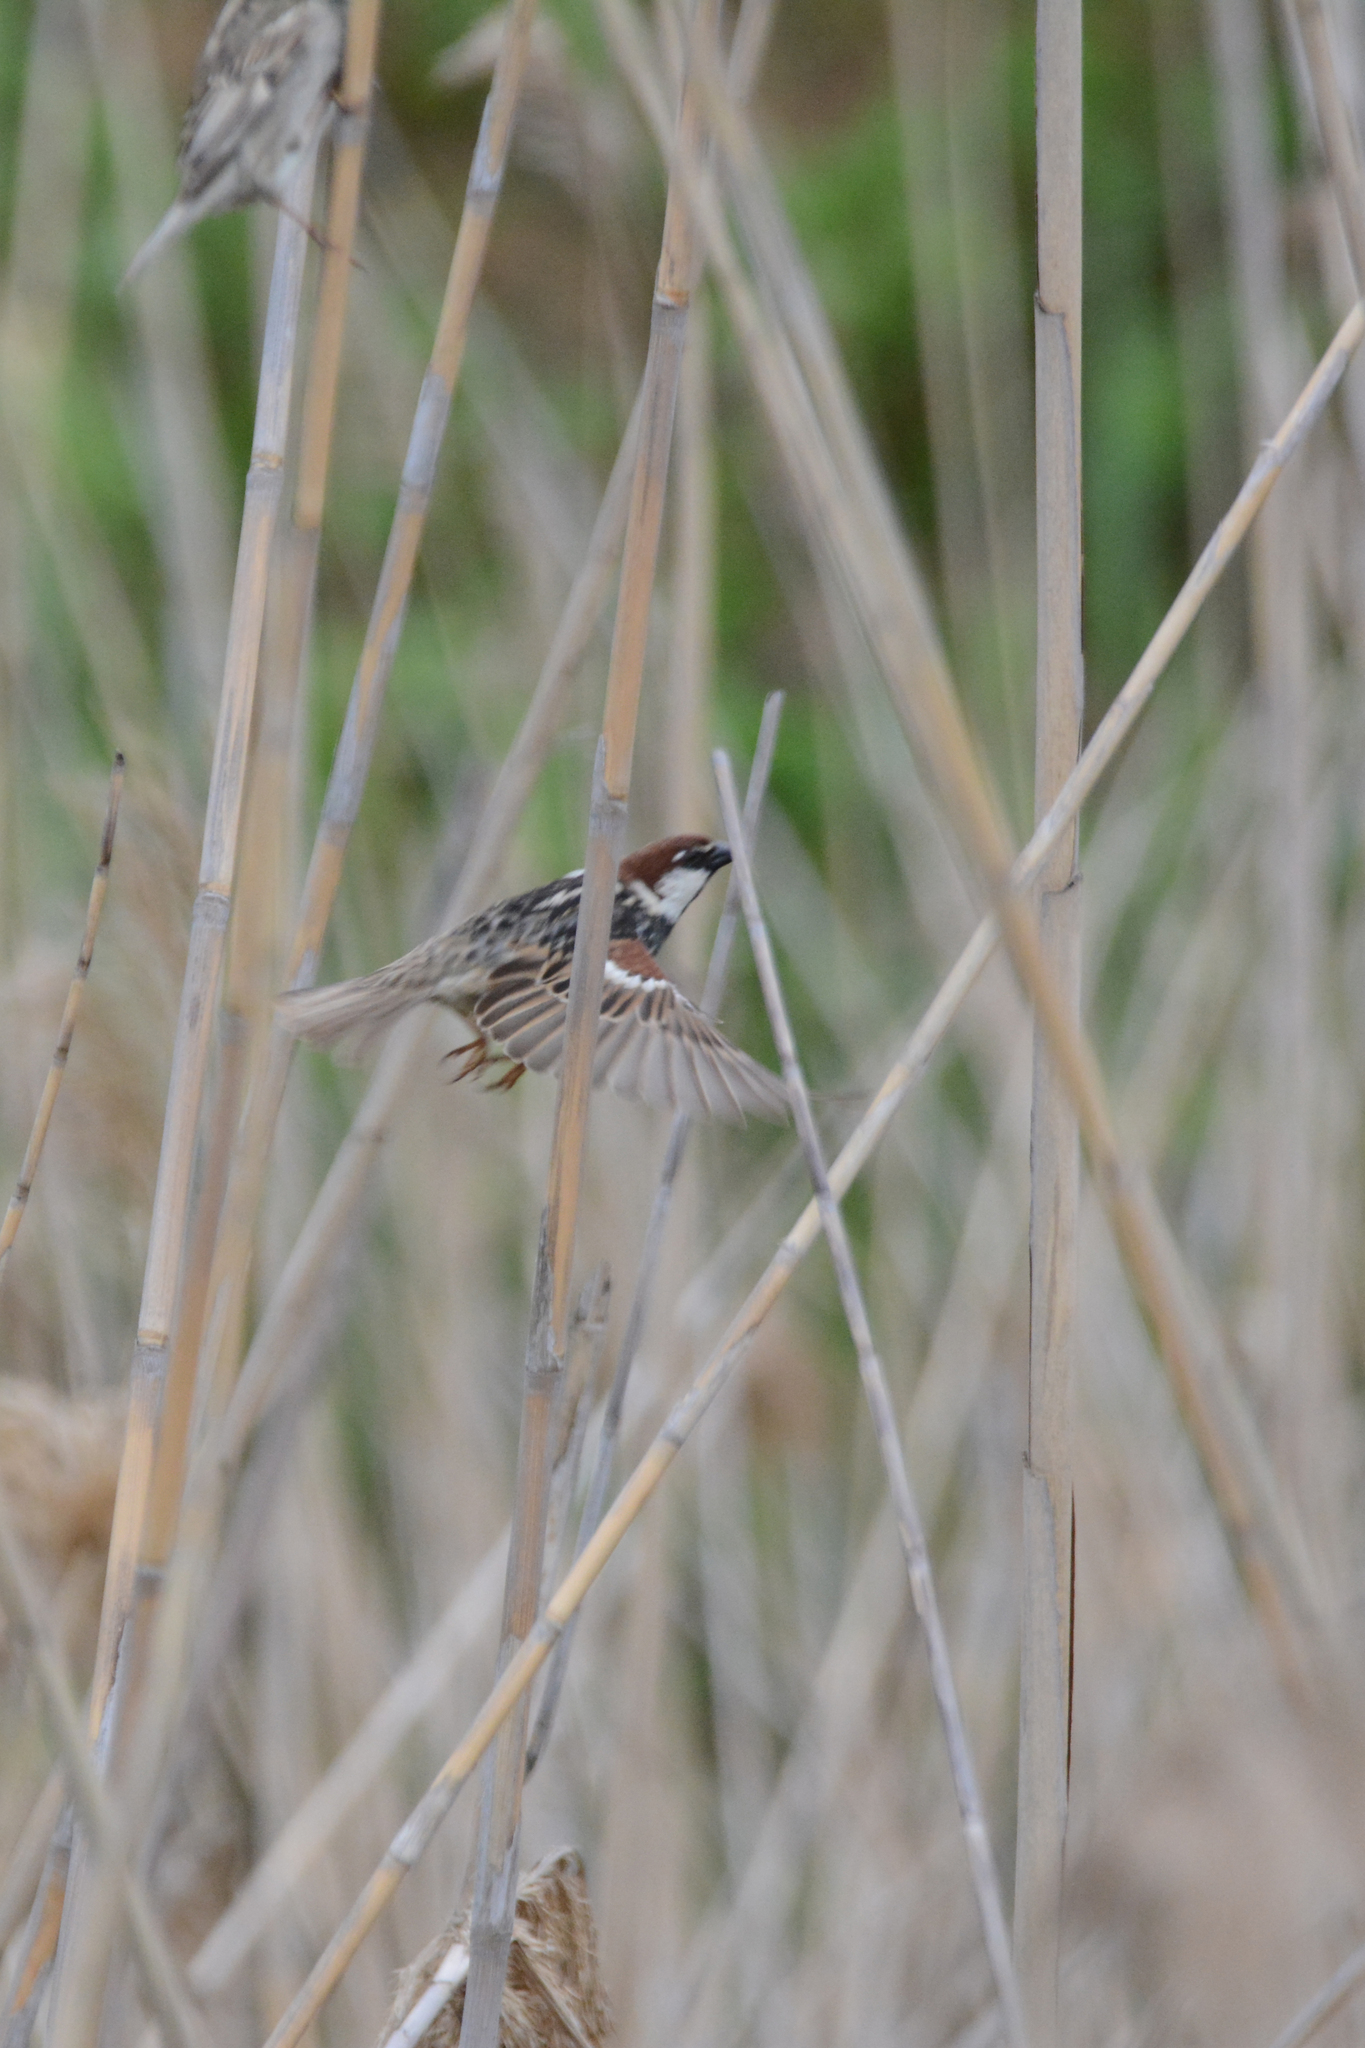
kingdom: Animalia
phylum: Chordata
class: Aves
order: Passeriformes
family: Passeridae
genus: Passer
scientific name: Passer hispaniolensis
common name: Spanish sparrow
